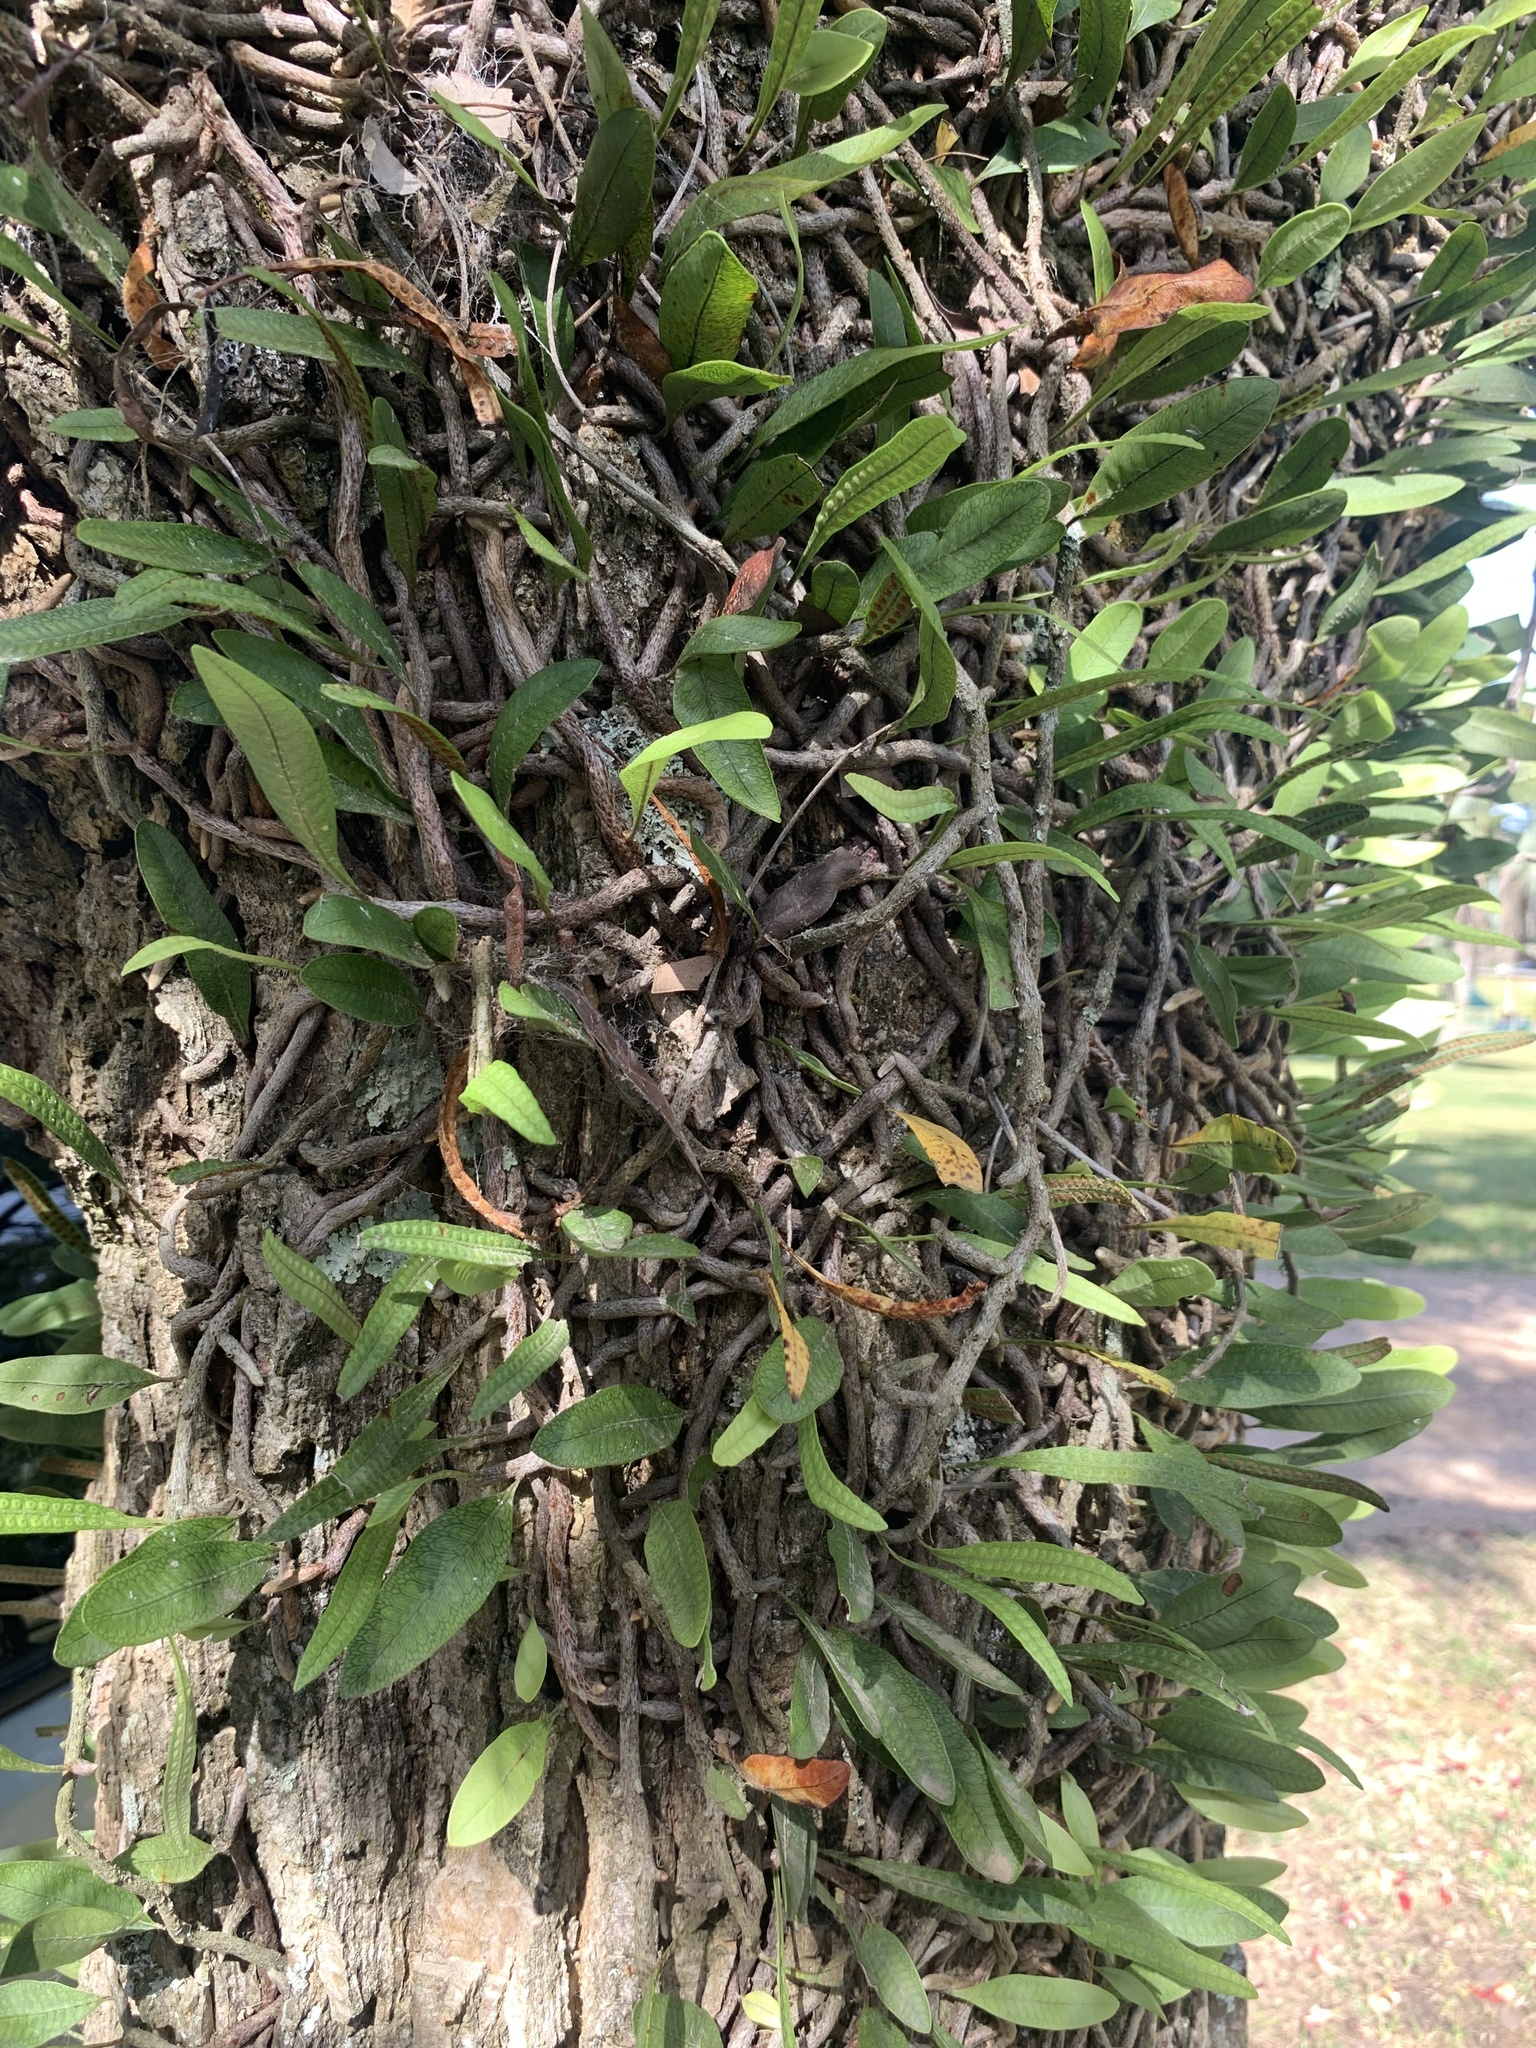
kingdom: Plantae
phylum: Tracheophyta
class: Polypodiopsida
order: Polypodiales
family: Polypodiaceae
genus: Microgramma
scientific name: Microgramma squamulosa
